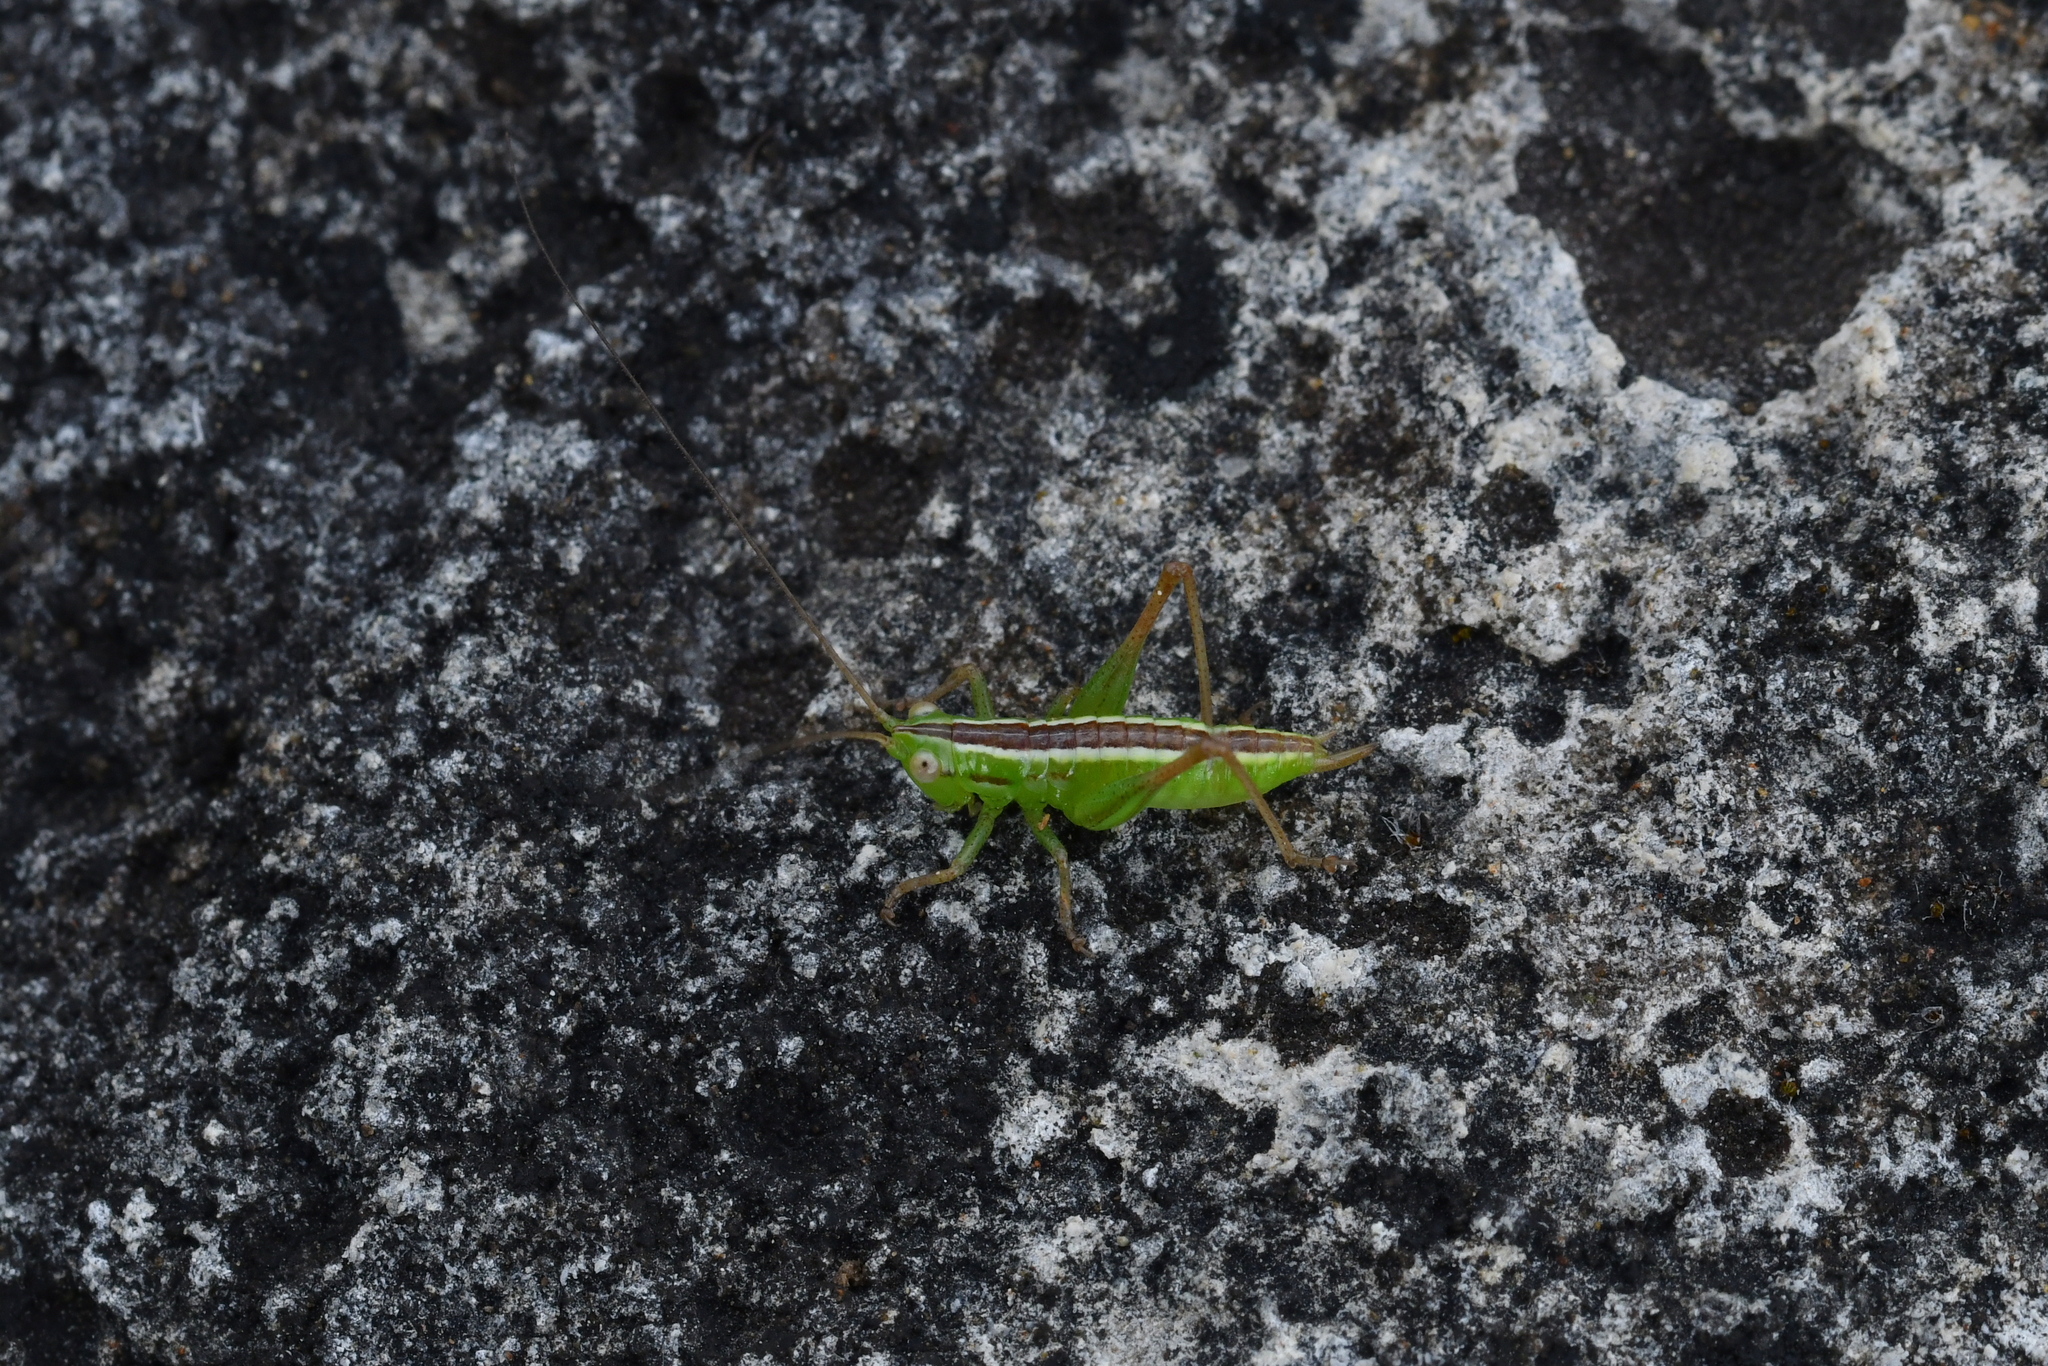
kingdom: Animalia
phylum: Arthropoda
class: Insecta
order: Orthoptera
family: Tettigoniidae
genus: Conocephalus
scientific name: Conocephalus bilineatus
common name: Small meadow katydid
